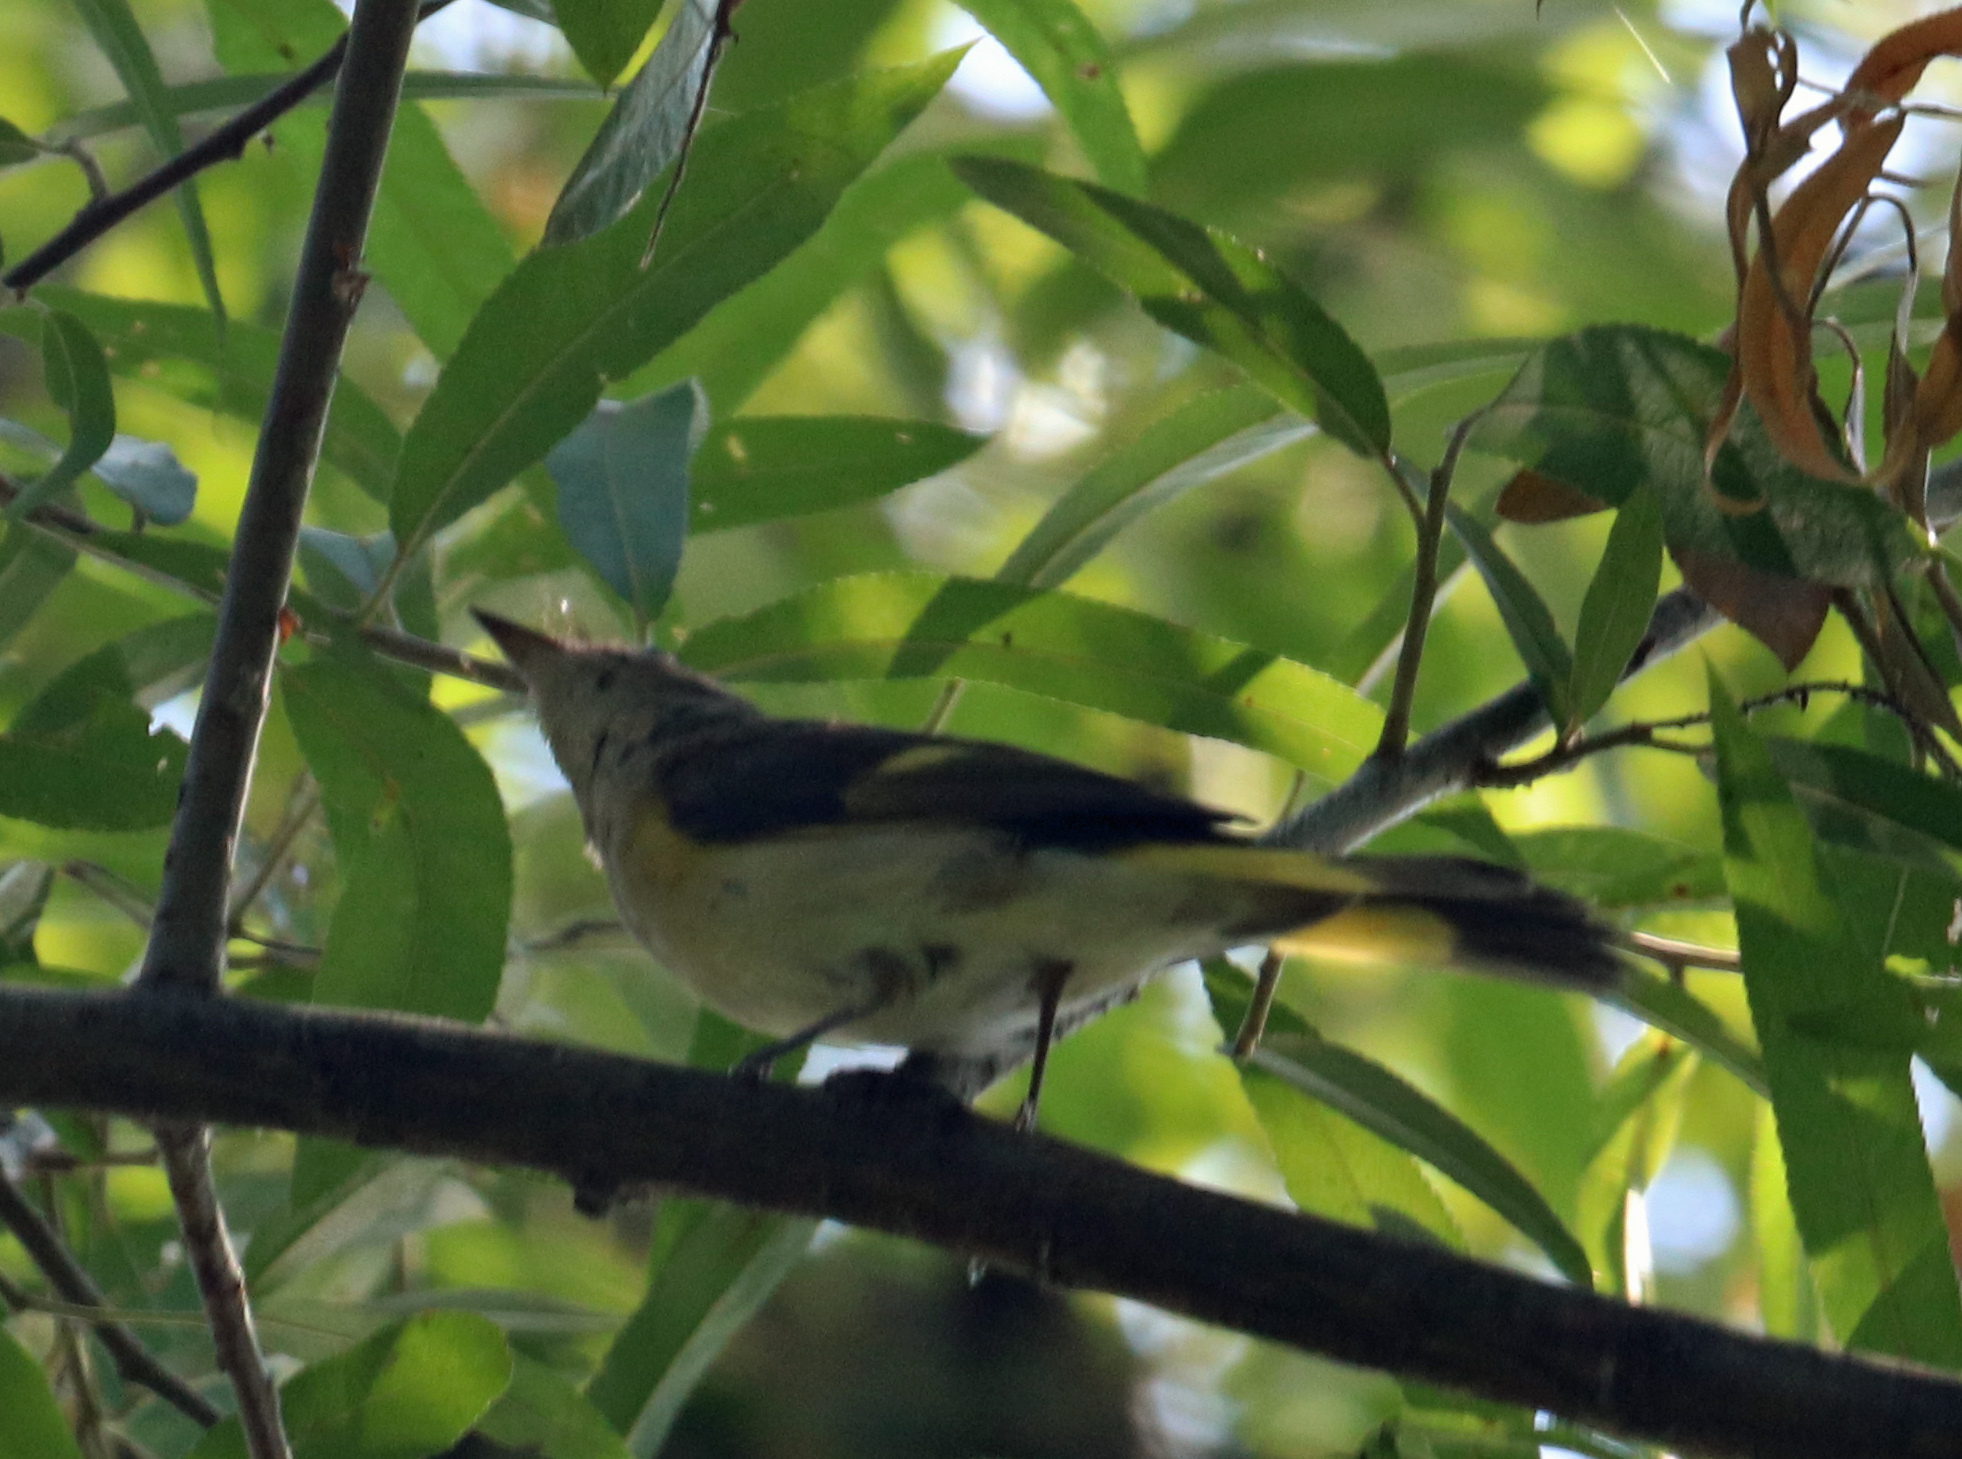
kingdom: Animalia
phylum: Chordata
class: Aves
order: Passeriformes
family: Parulidae
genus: Setophaga
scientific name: Setophaga ruticilla
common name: American redstart
